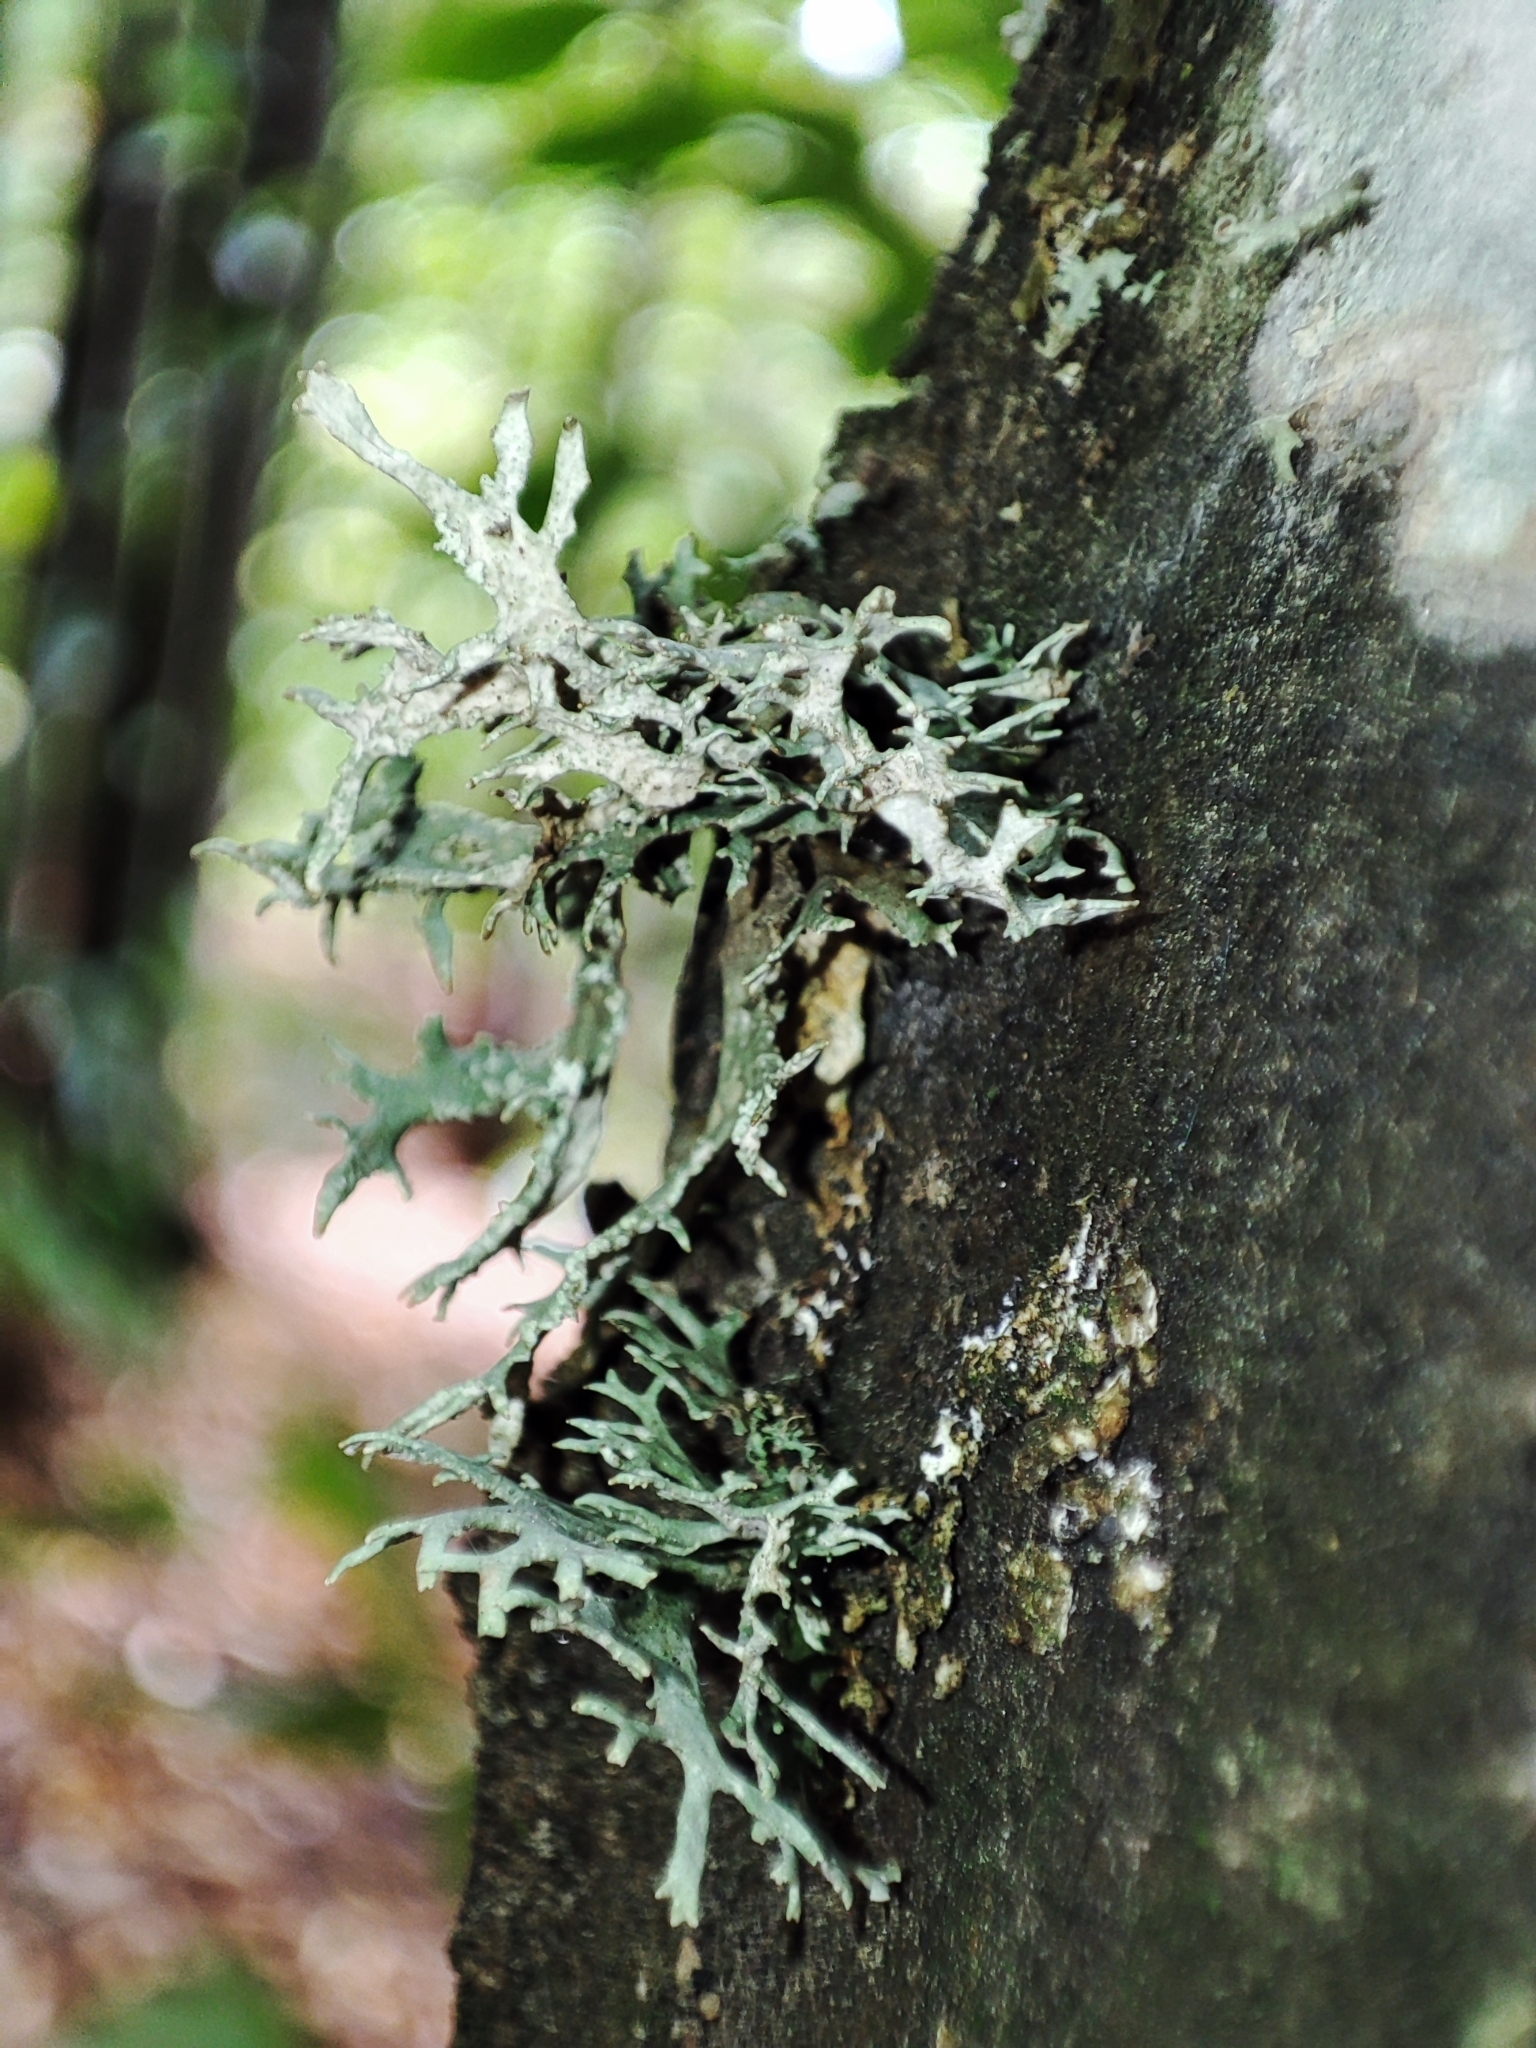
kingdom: Fungi
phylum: Ascomycota
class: Lecanoromycetes
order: Lecanorales
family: Parmeliaceae
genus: Evernia
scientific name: Evernia prunastri
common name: Oak moss
